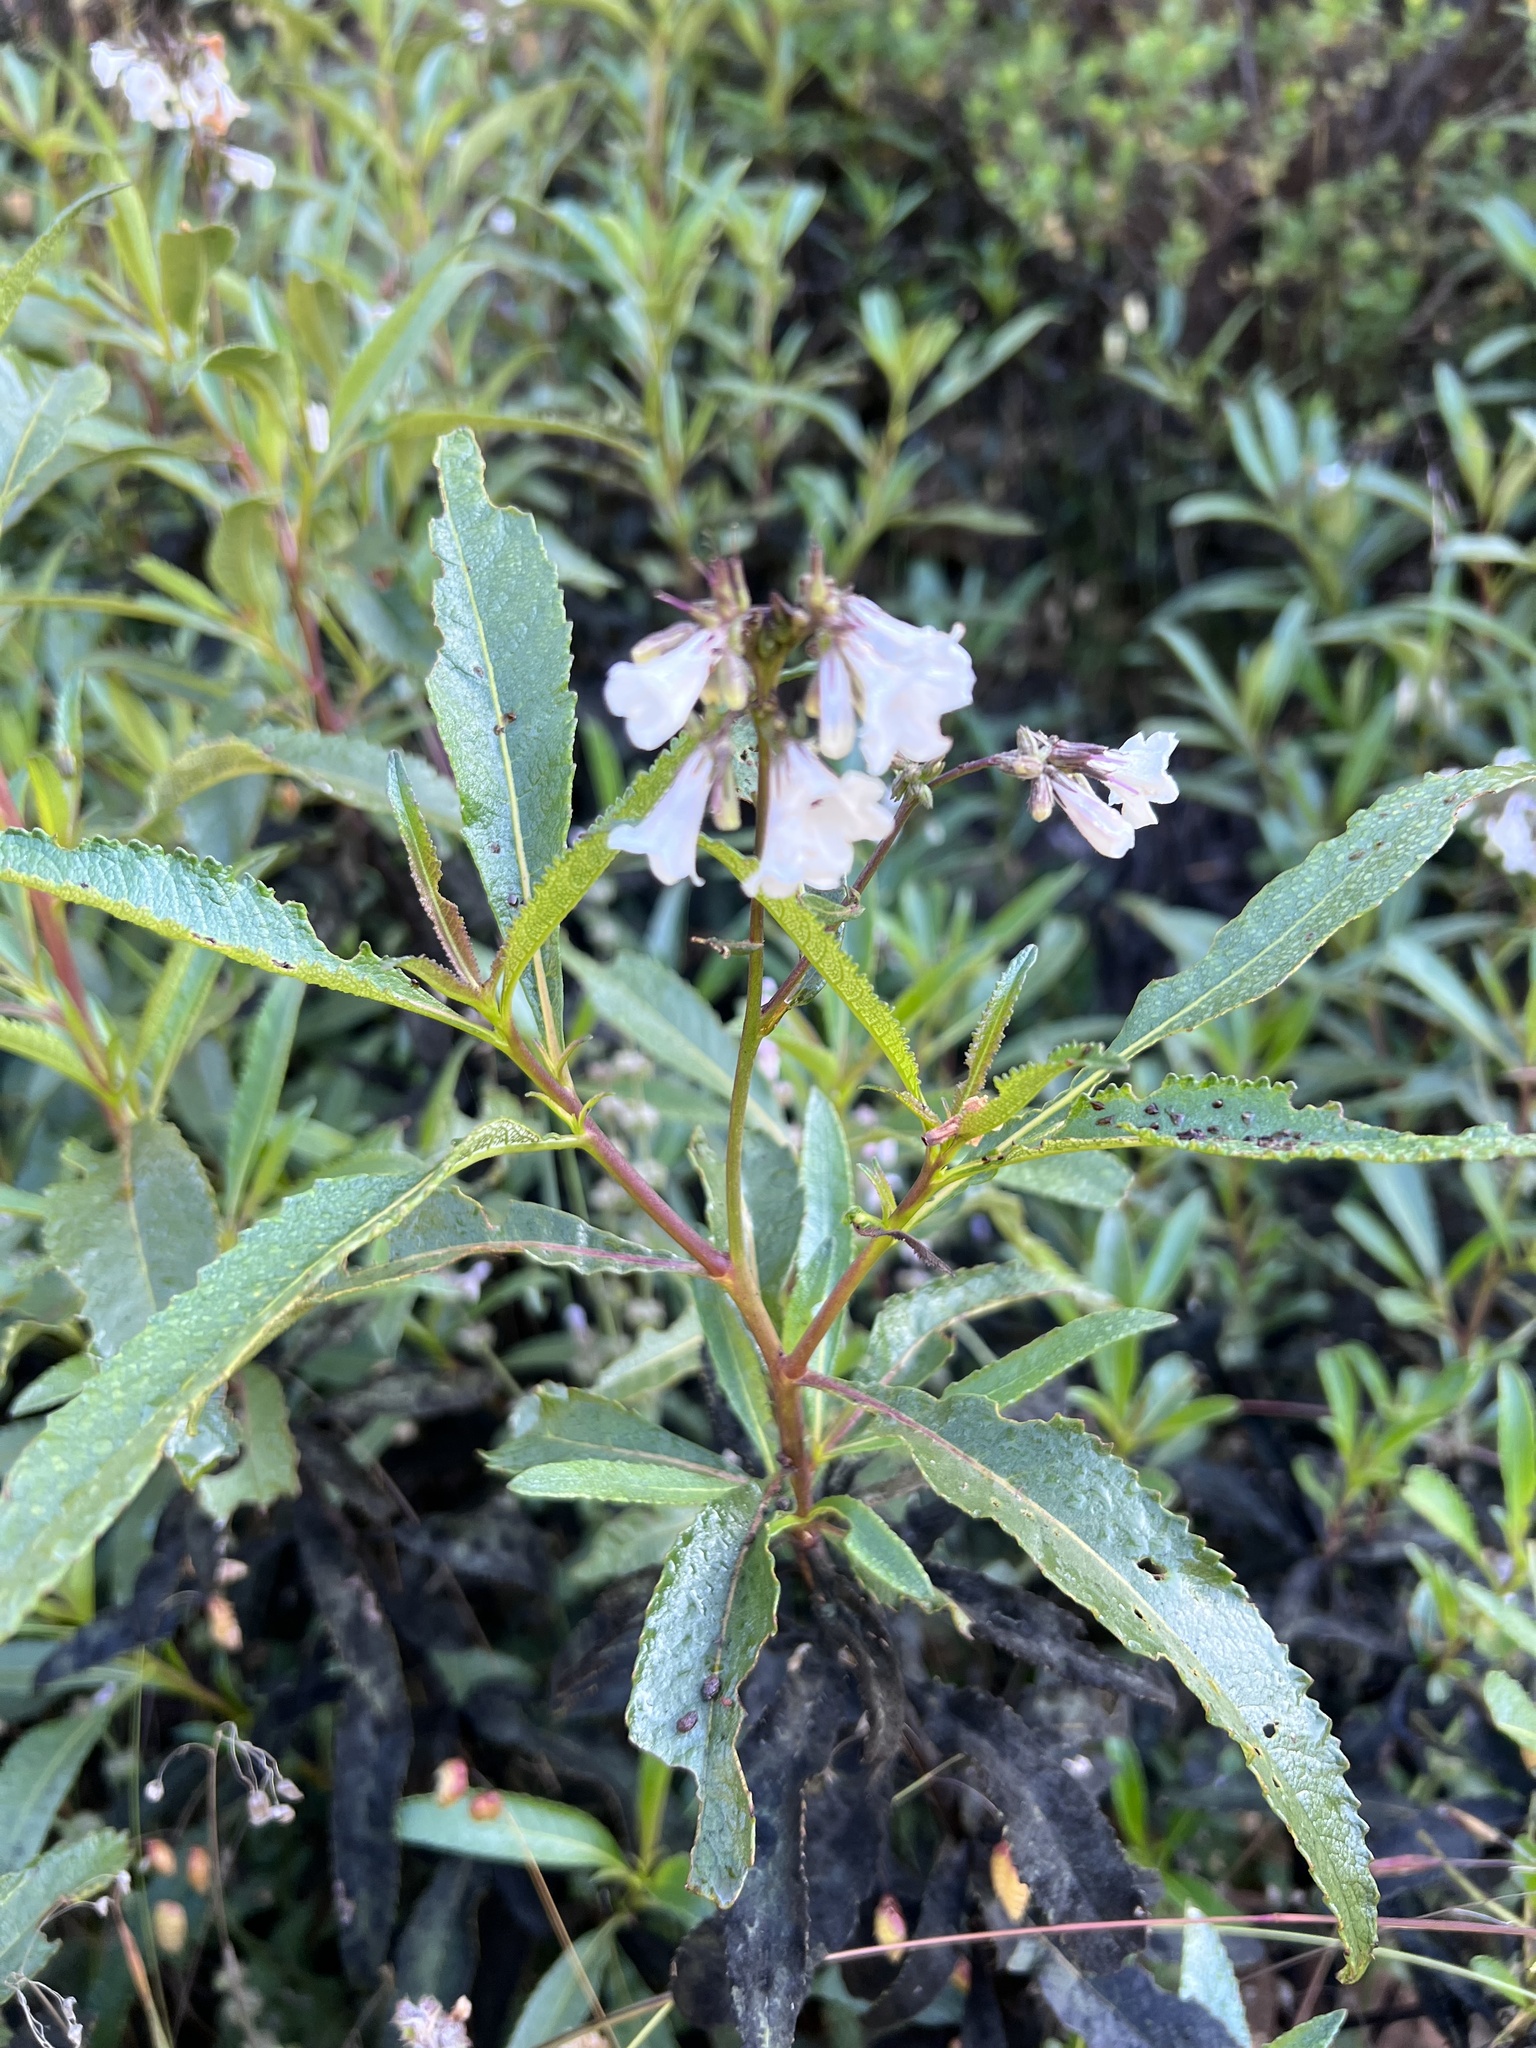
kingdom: Plantae
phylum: Tracheophyta
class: Magnoliopsida
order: Boraginales
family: Namaceae
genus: Eriodictyon
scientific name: Eriodictyon californicum
